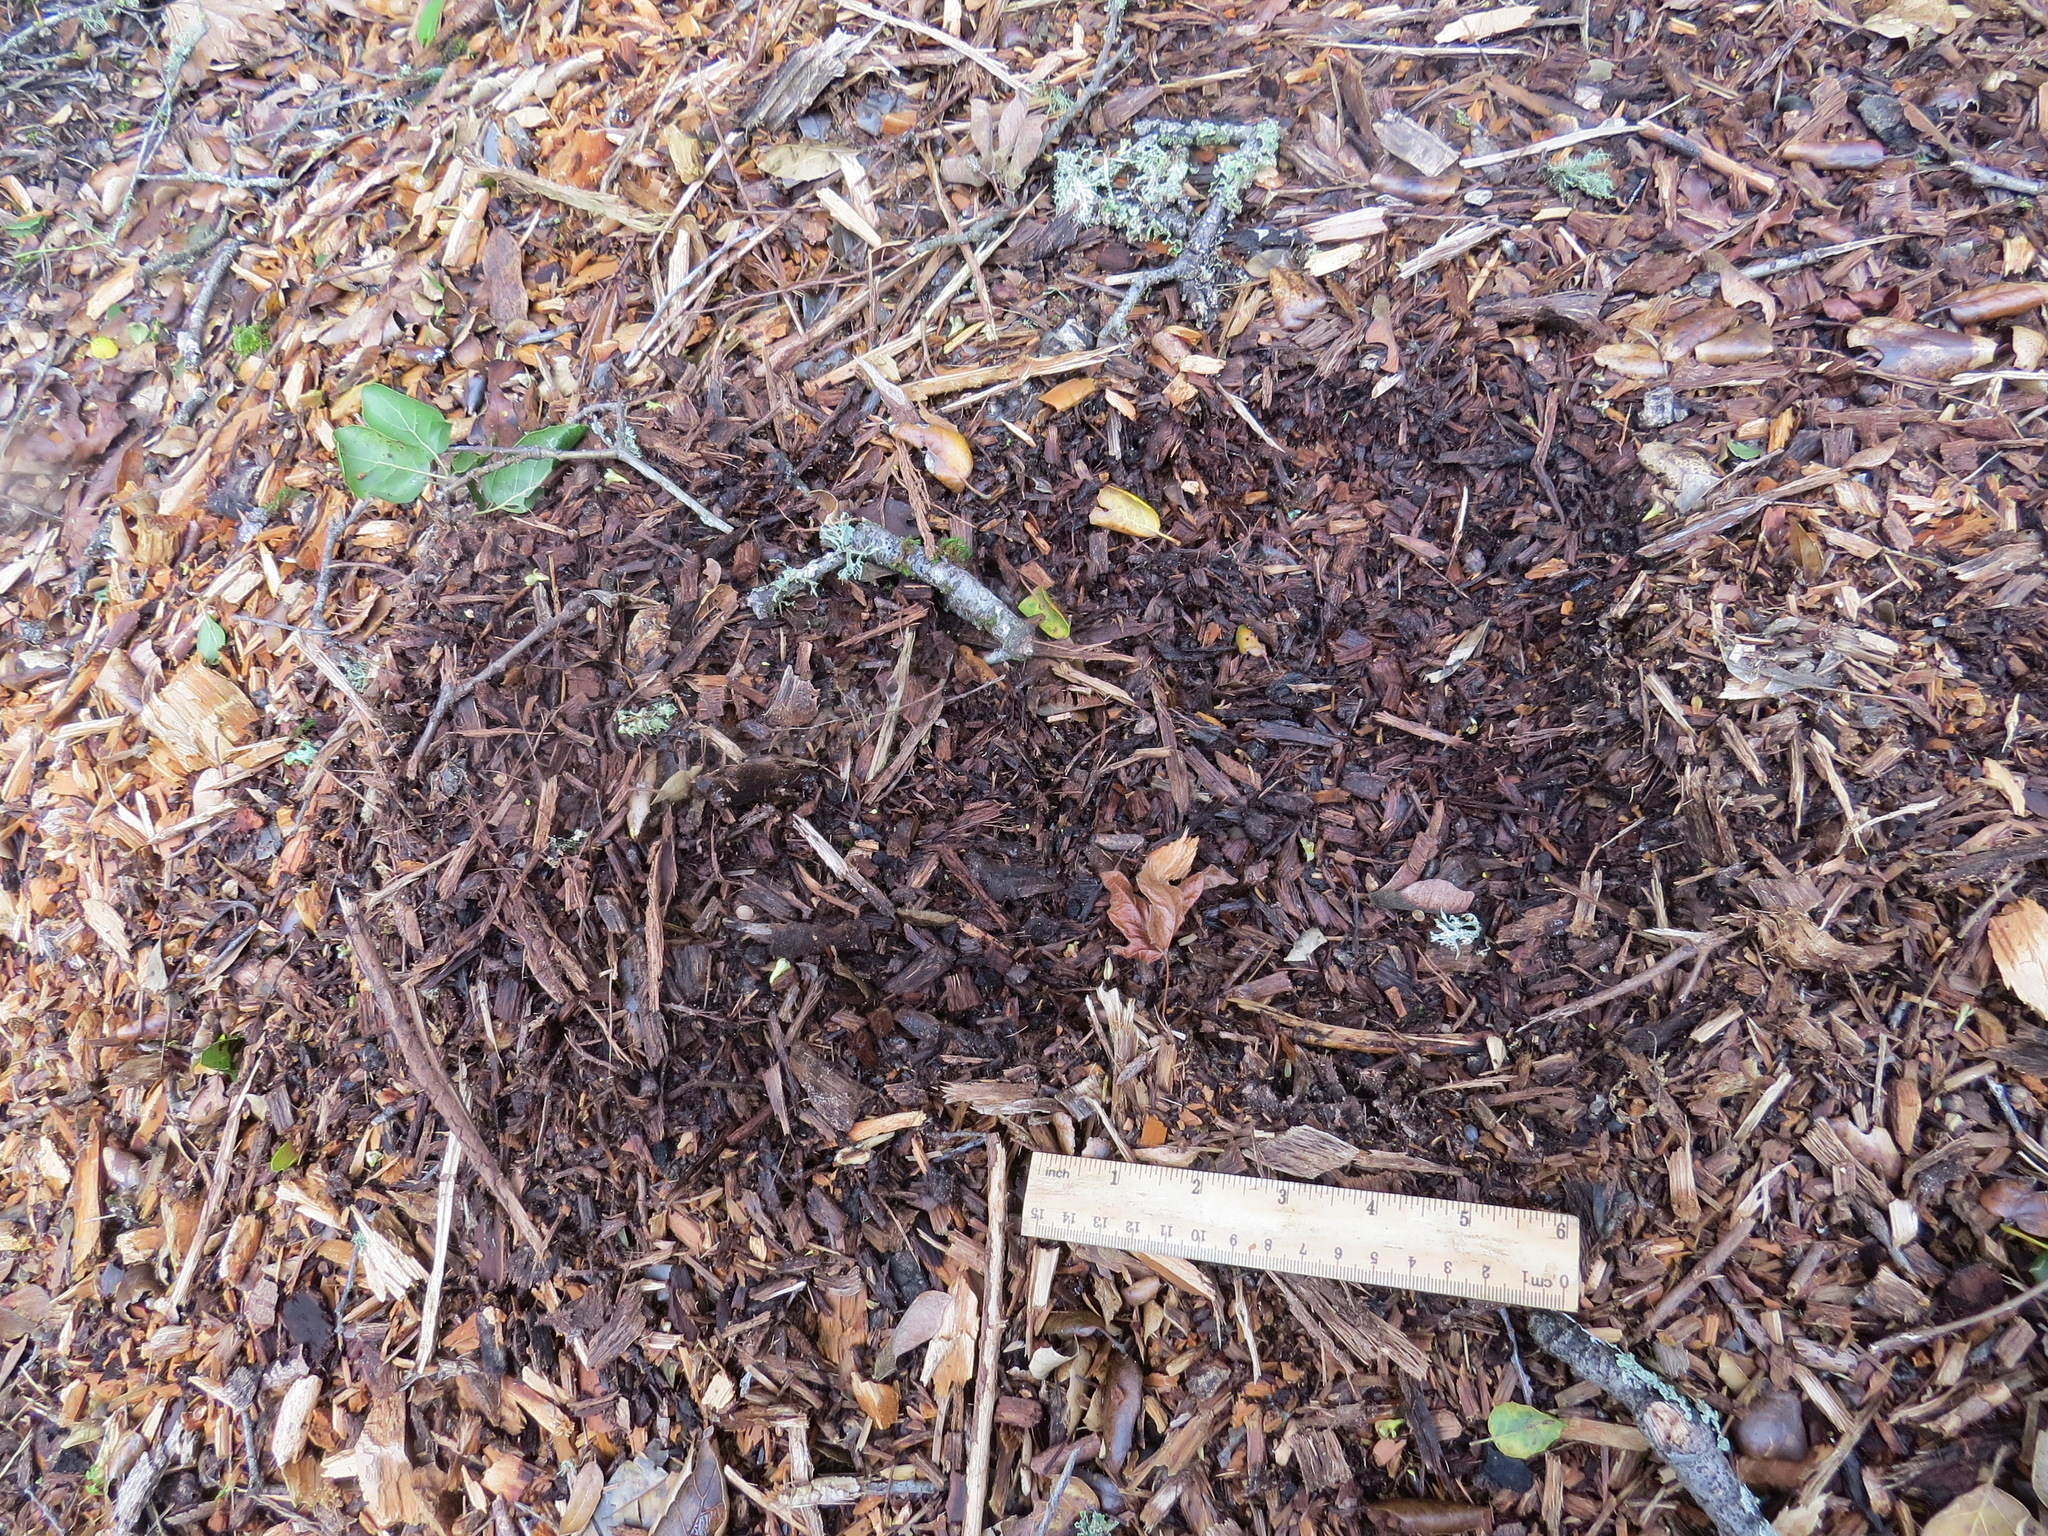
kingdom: Animalia
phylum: Chordata
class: Mammalia
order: Carnivora
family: Felidae
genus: Puma
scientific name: Puma concolor
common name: Puma
